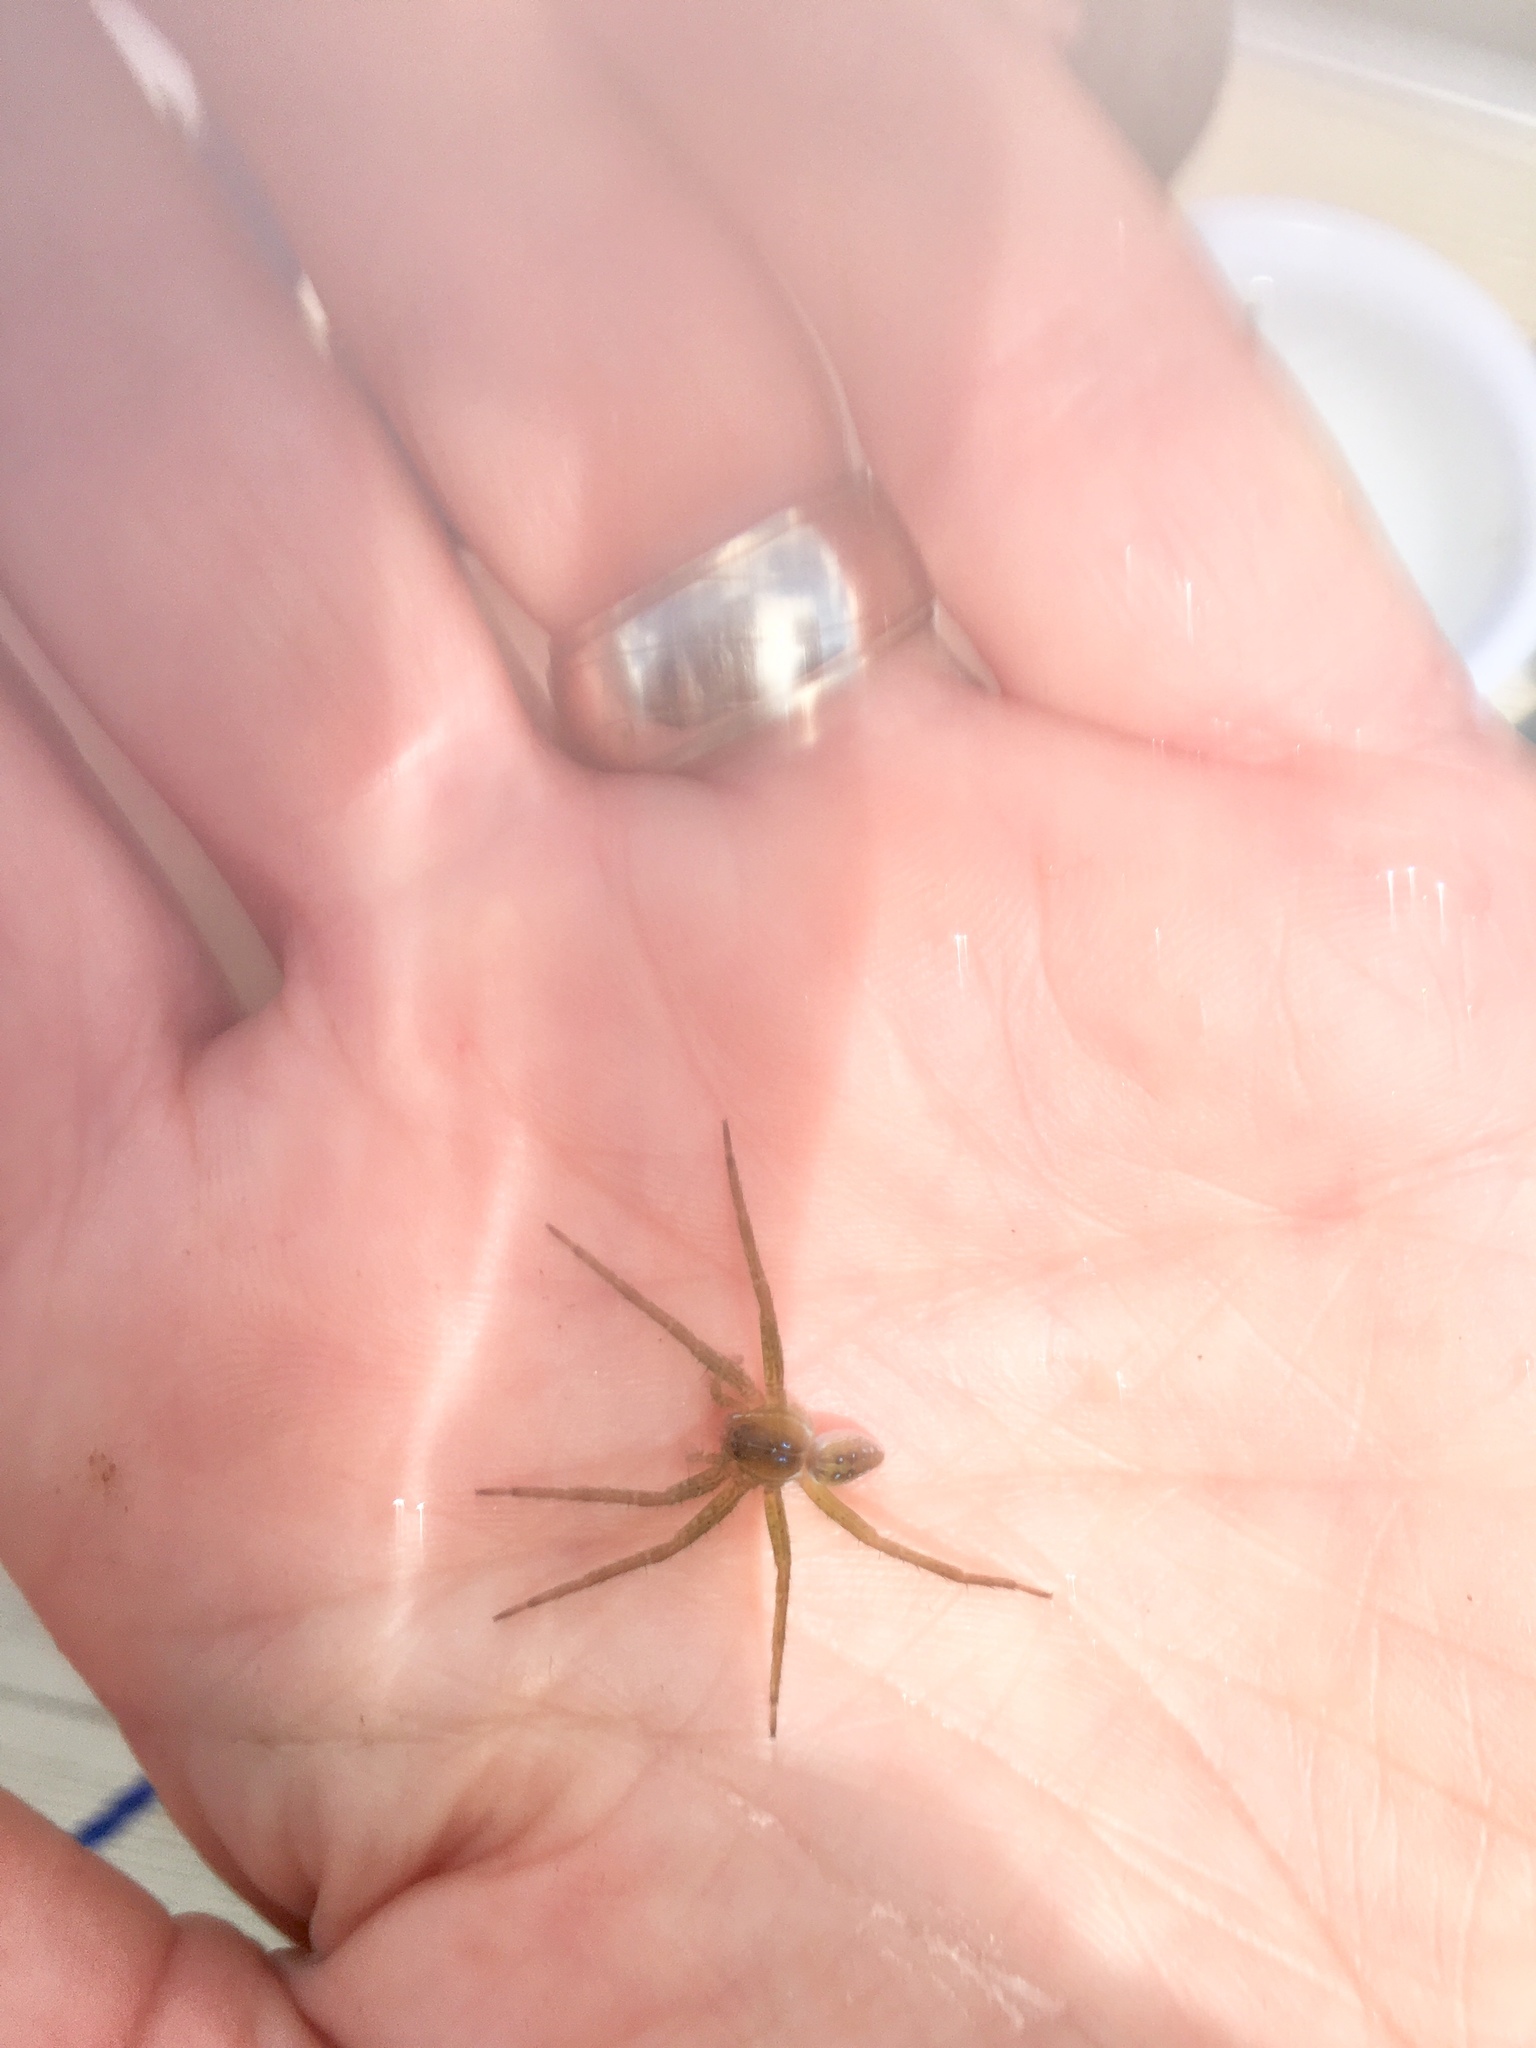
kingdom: Animalia
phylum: Arthropoda
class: Arachnida
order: Araneae
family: Pisauridae
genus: Dolomedes
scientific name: Dolomedes triton
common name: Six-spotted fishing spider
